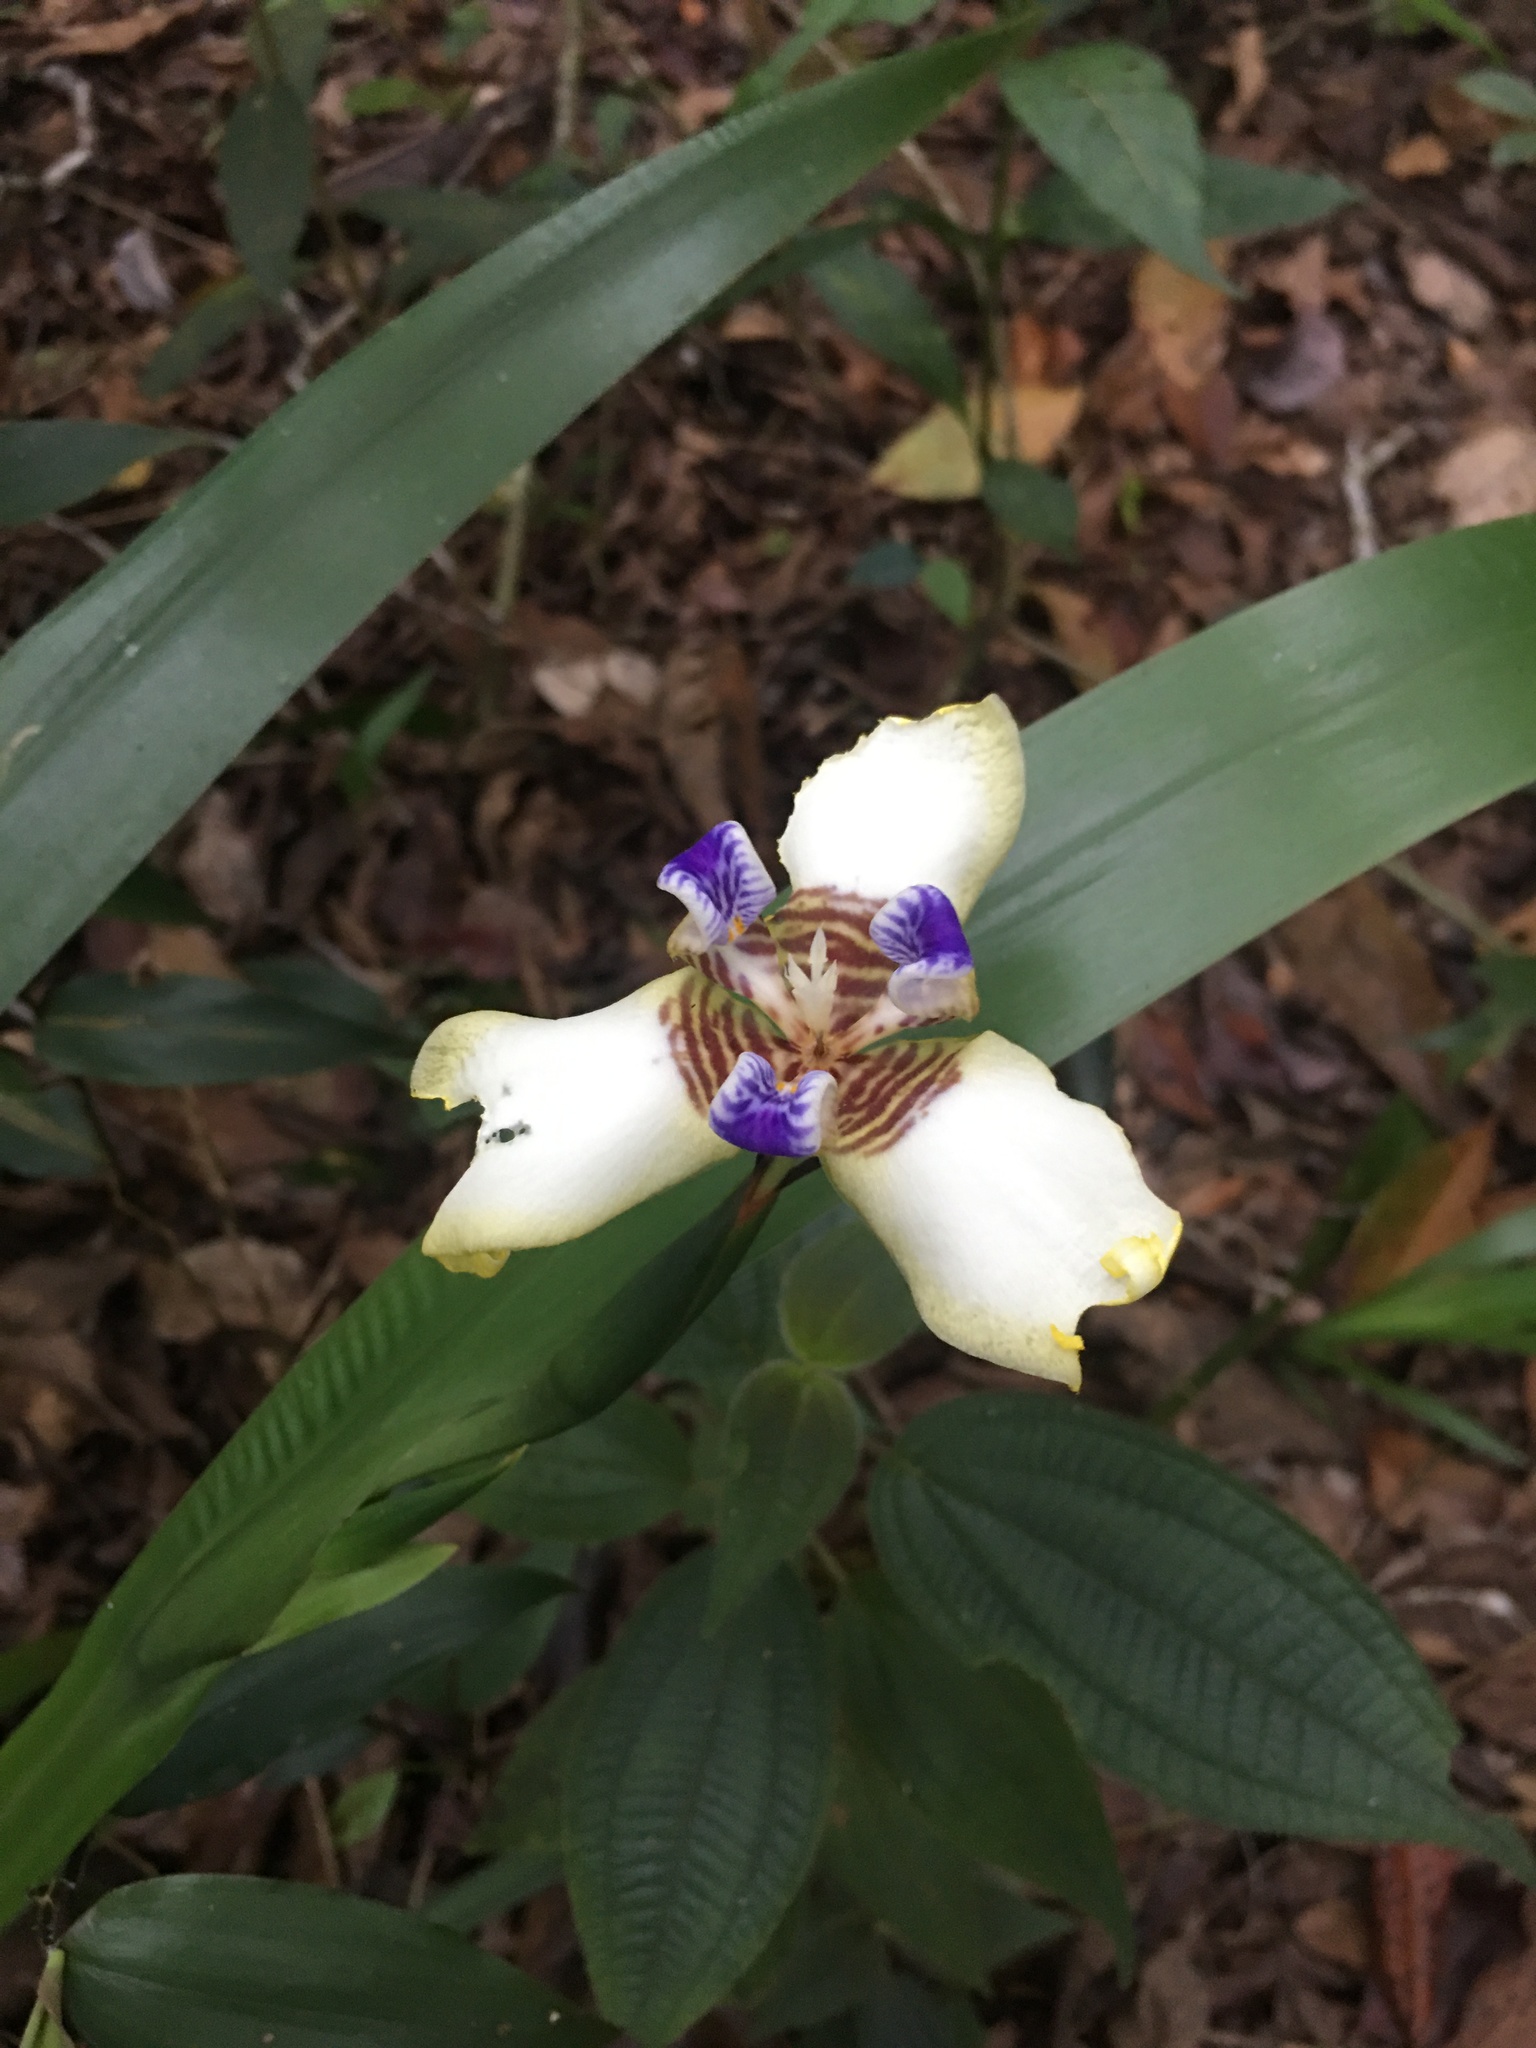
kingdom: Plantae
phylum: Tracheophyta
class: Liliopsida
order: Asparagales
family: Iridaceae
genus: Trimezia
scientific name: Trimezia portosecurensis
